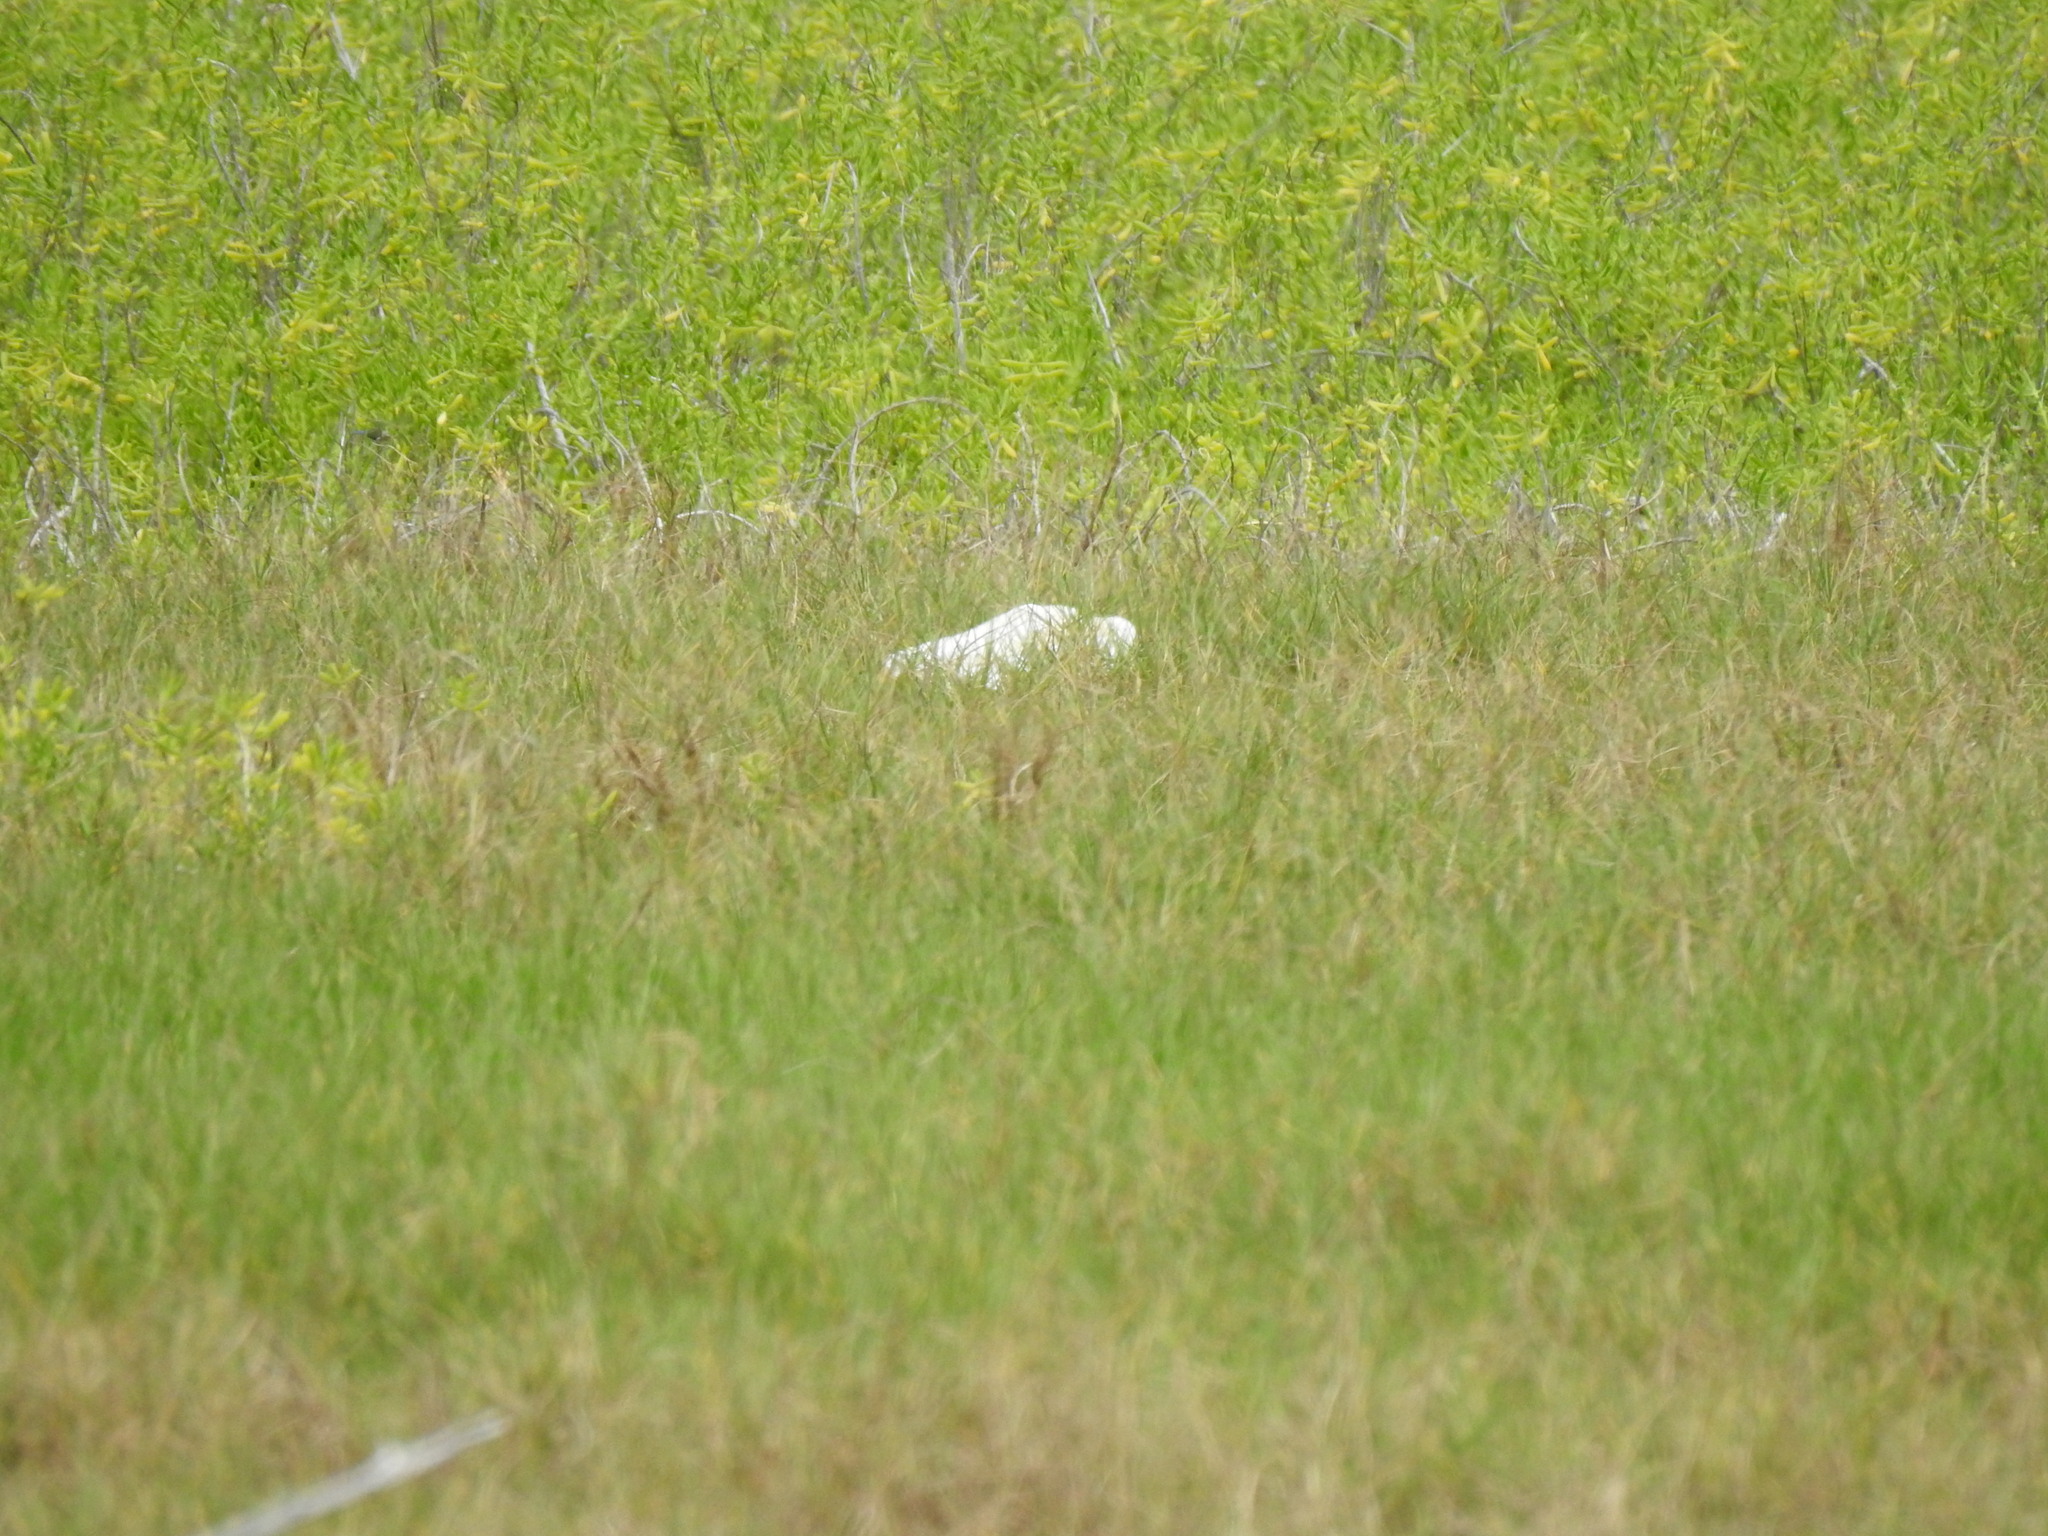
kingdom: Animalia
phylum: Chordata
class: Aves
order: Pelecaniformes
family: Ardeidae
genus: Bubulcus
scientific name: Bubulcus ibis
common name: Cattle egret
